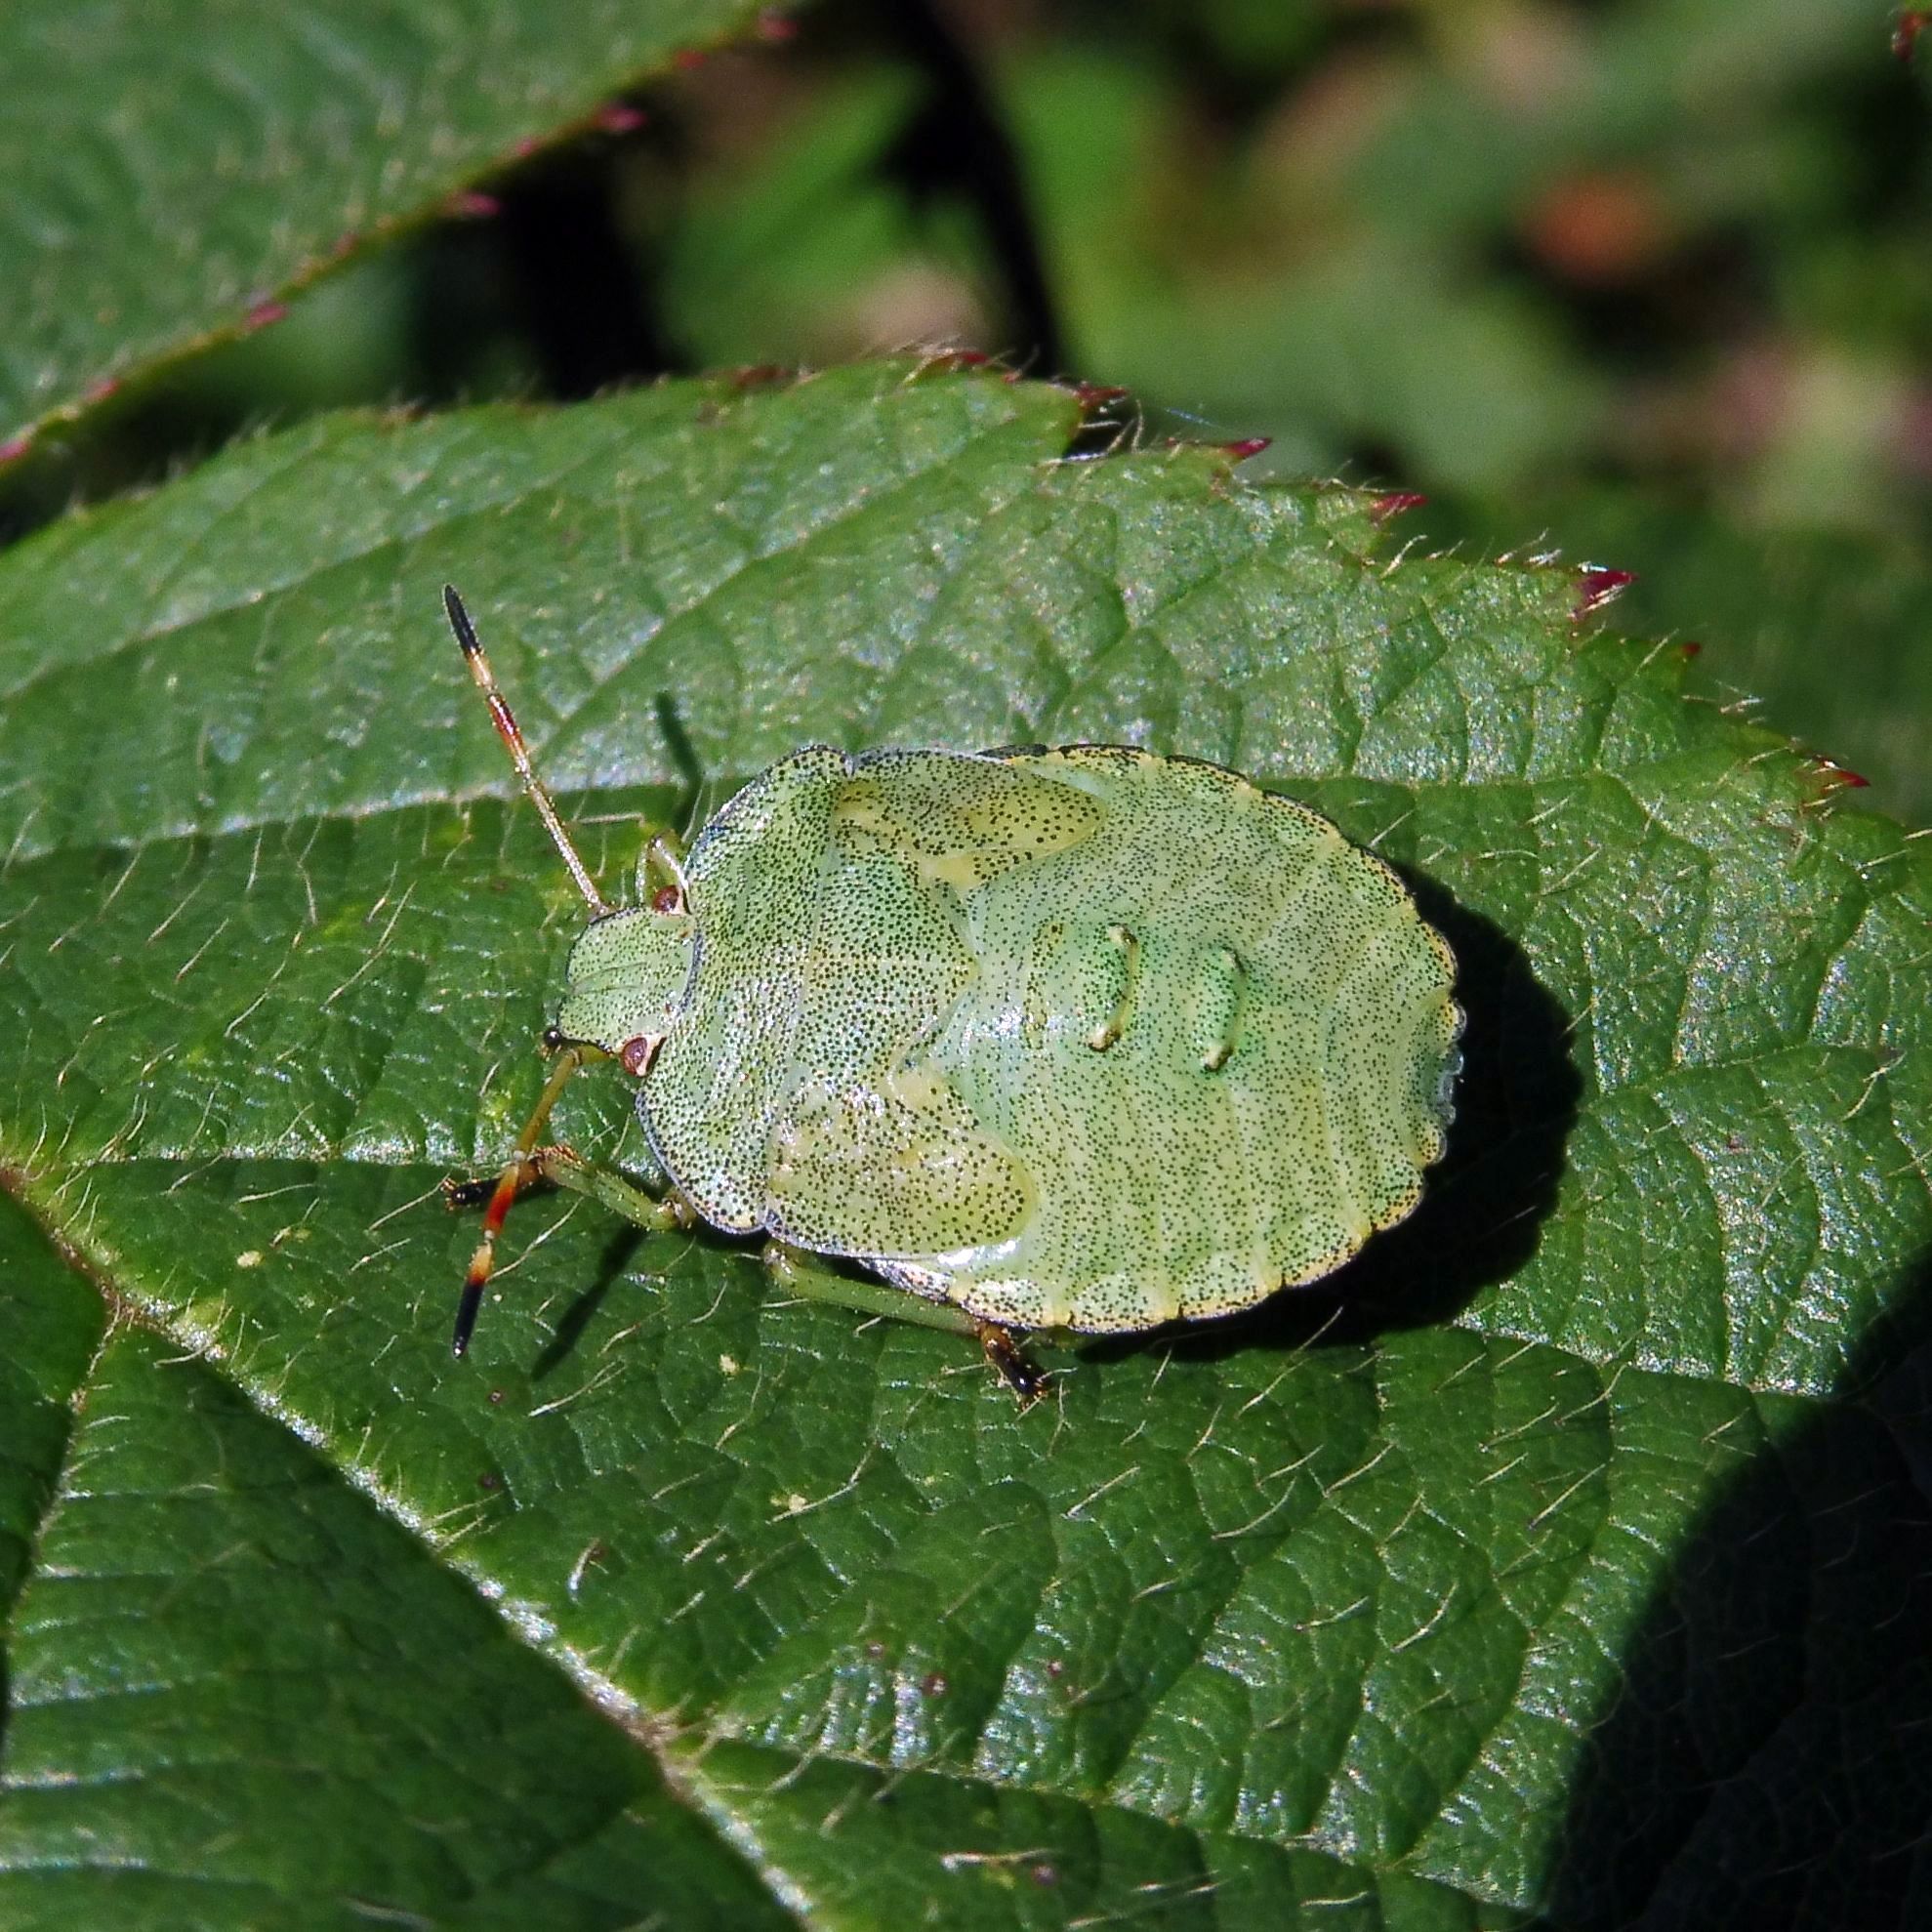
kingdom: Animalia
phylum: Arthropoda
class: Insecta
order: Hemiptera
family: Pentatomidae
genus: Palomena
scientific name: Palomena prasina
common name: Green shieldbug
